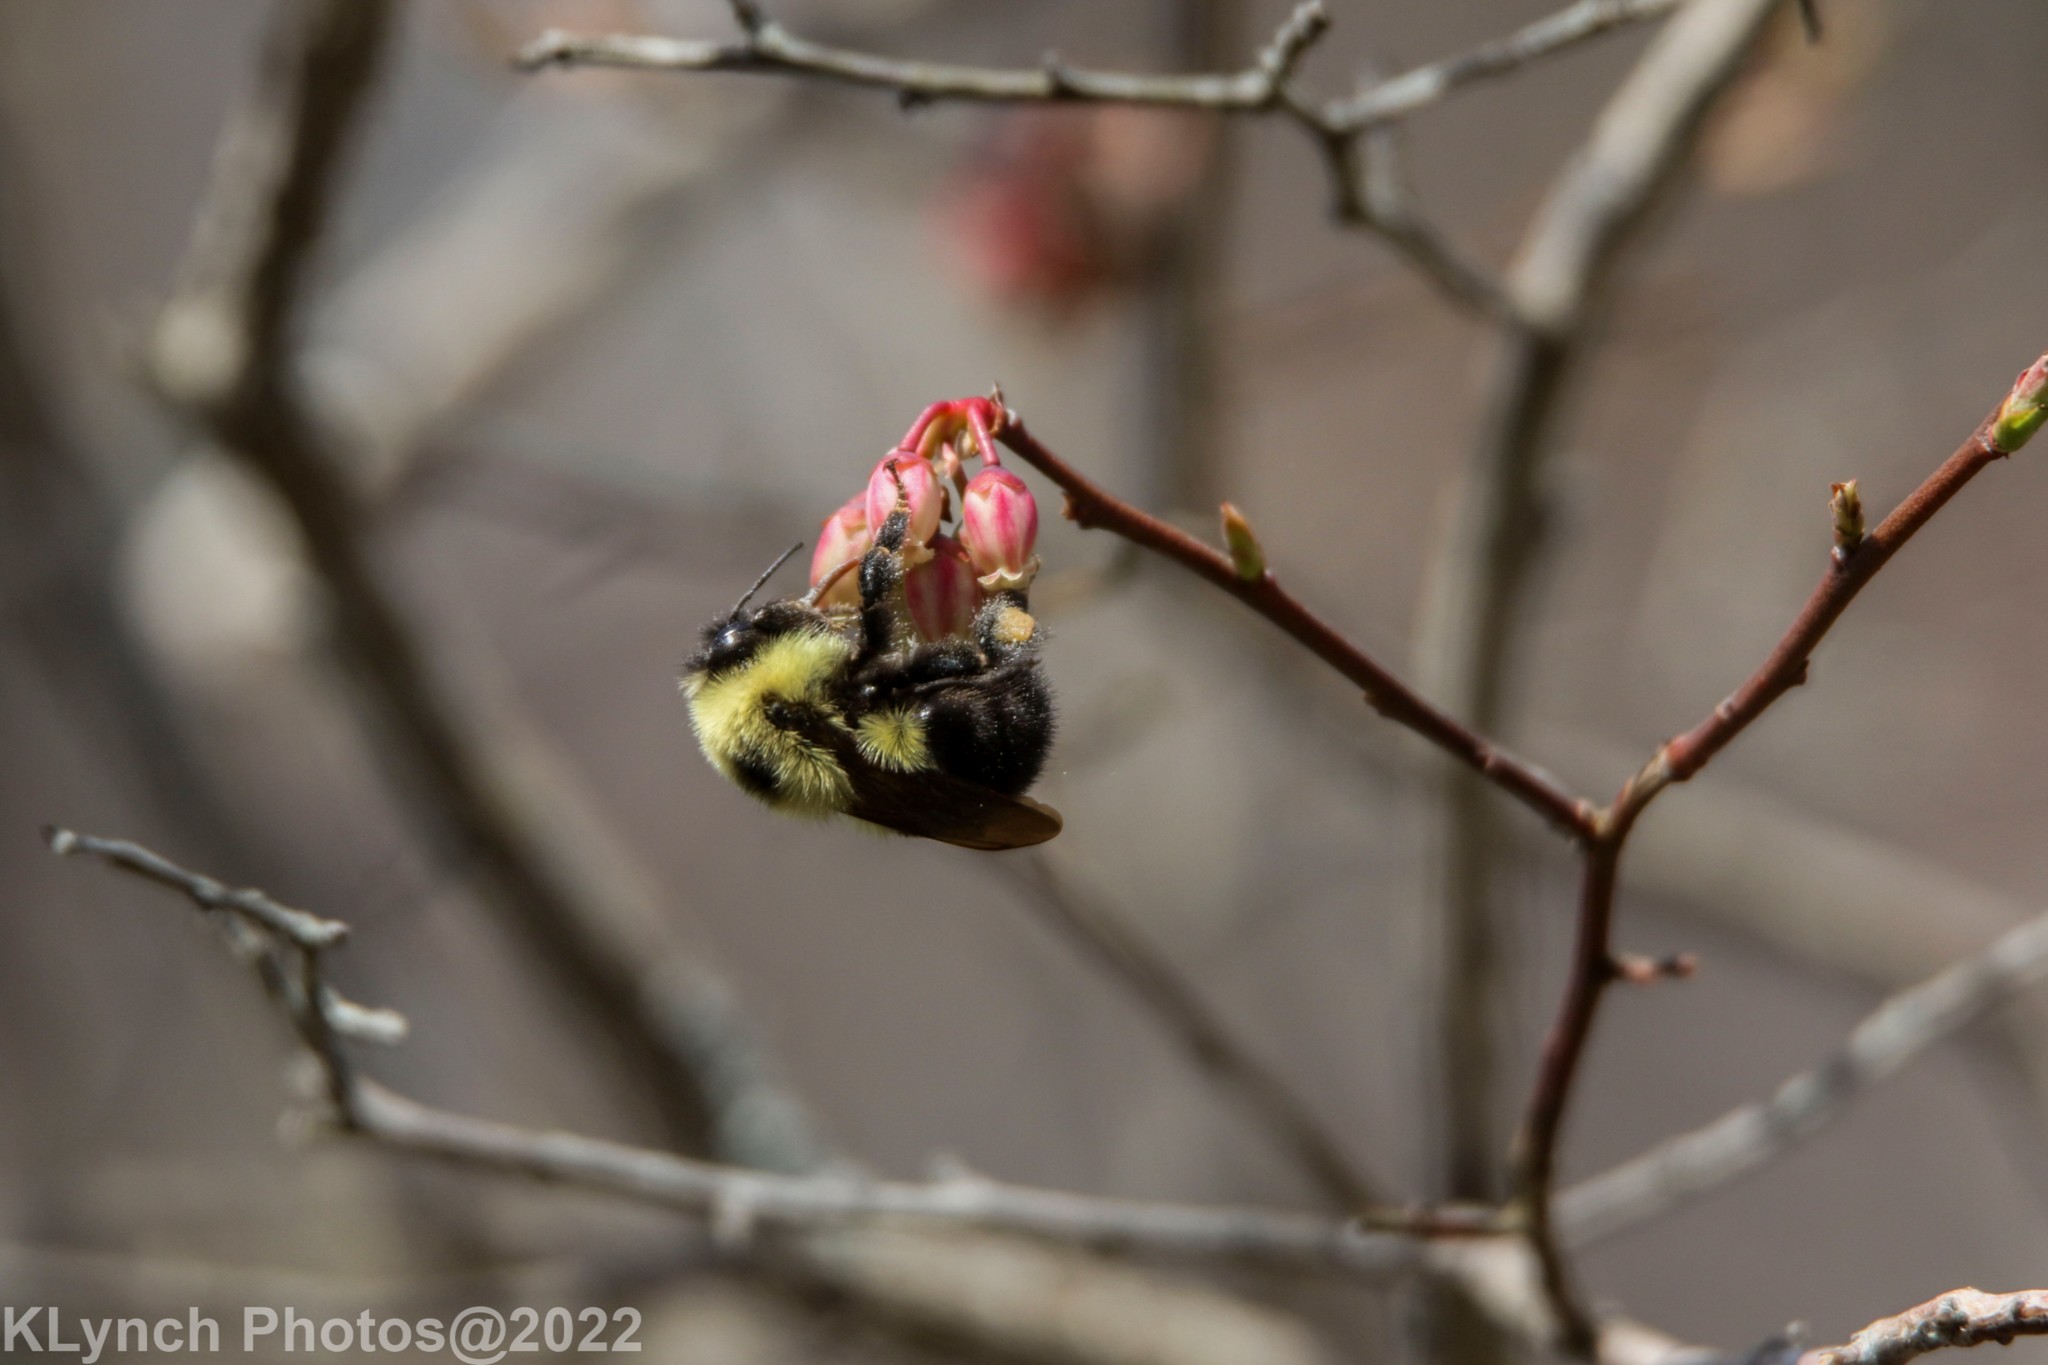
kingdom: Animalia
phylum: Arthropoda
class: Insecta
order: Hymenoptera
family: Apidae
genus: Bombus
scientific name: Bombus bimaculatus
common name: Two-spotted bumble bee
